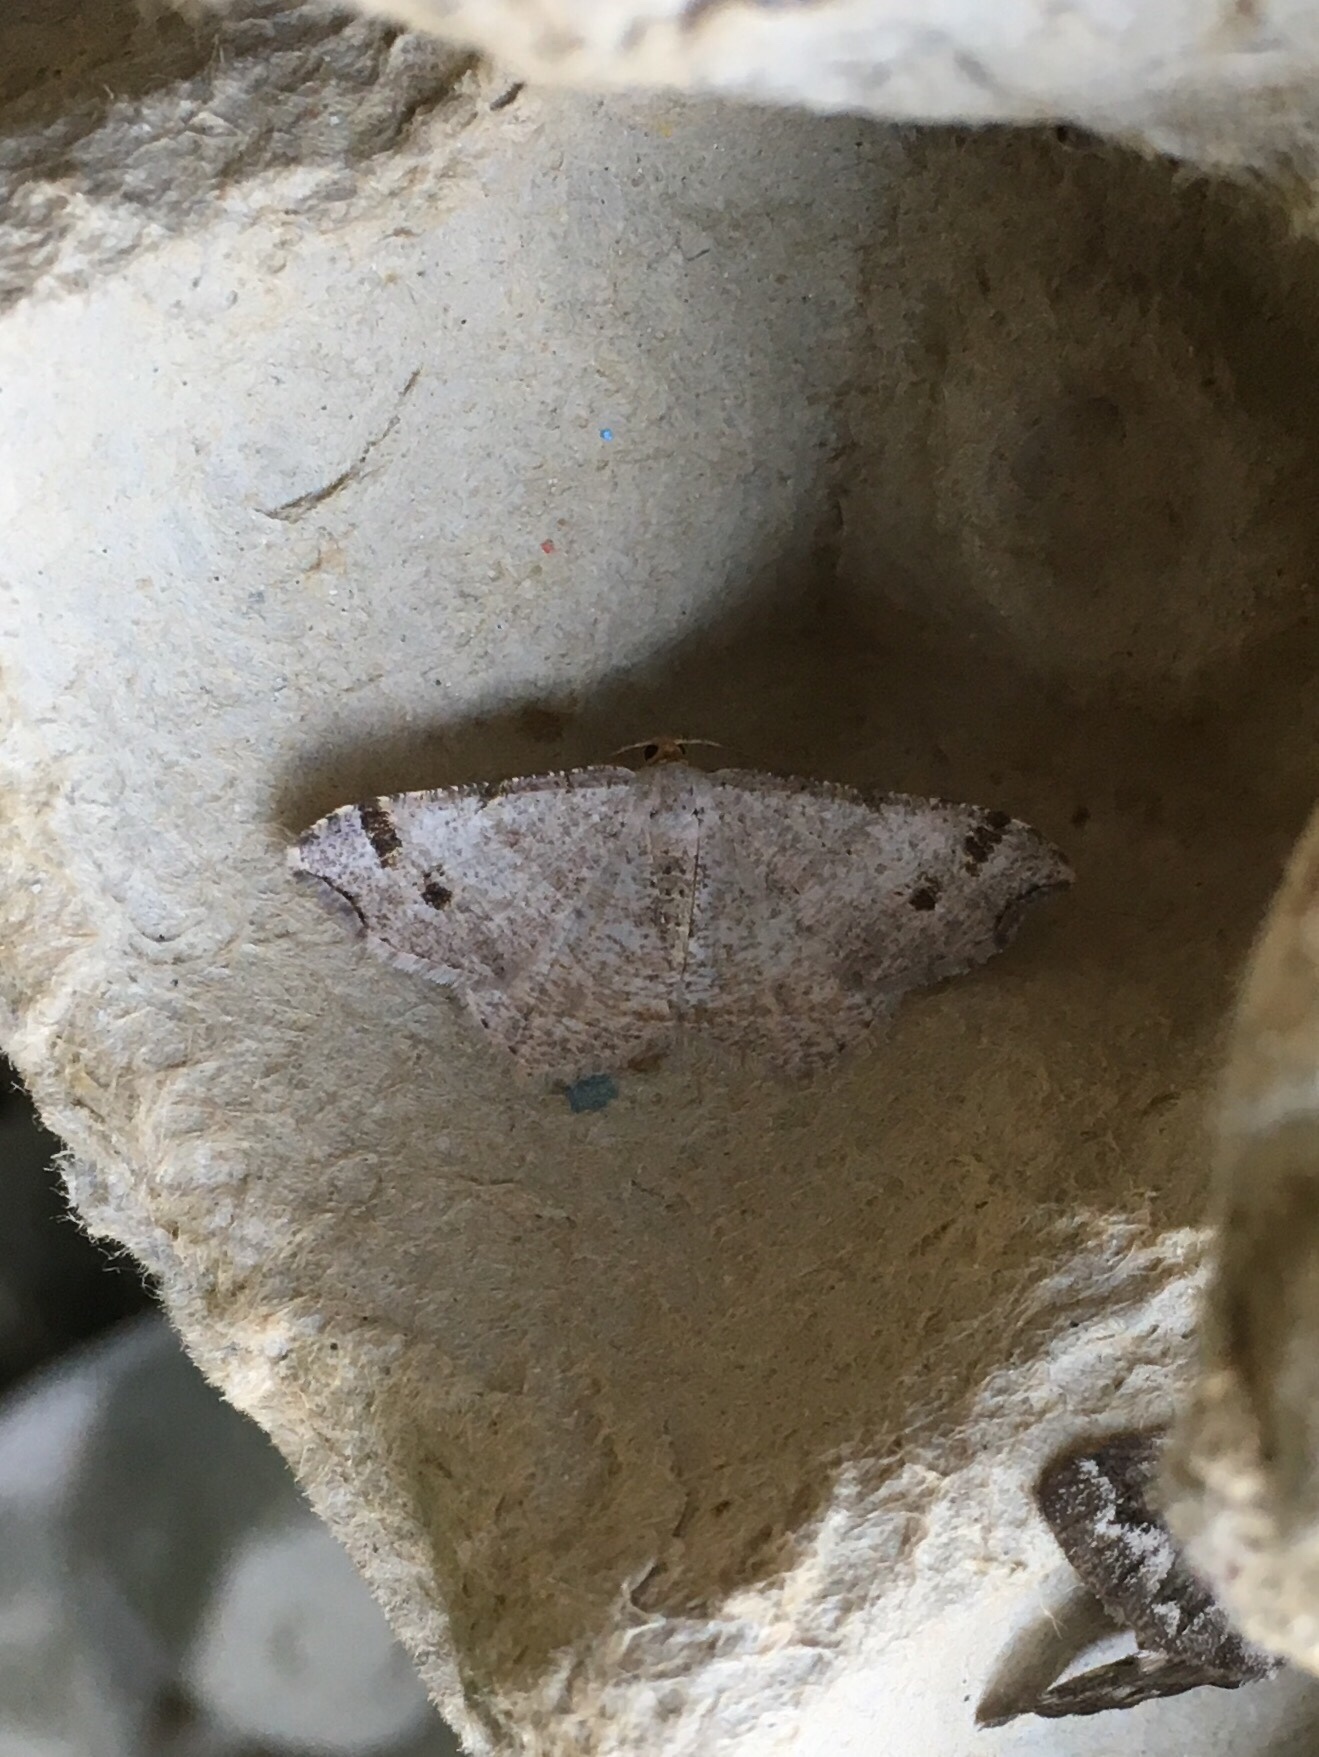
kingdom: Animalia
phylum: Arthropoda
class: Insecta
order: Lepidoptera
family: Geometridae
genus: Macaria
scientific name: Macaria bisignata
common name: Red-headed inchworm
